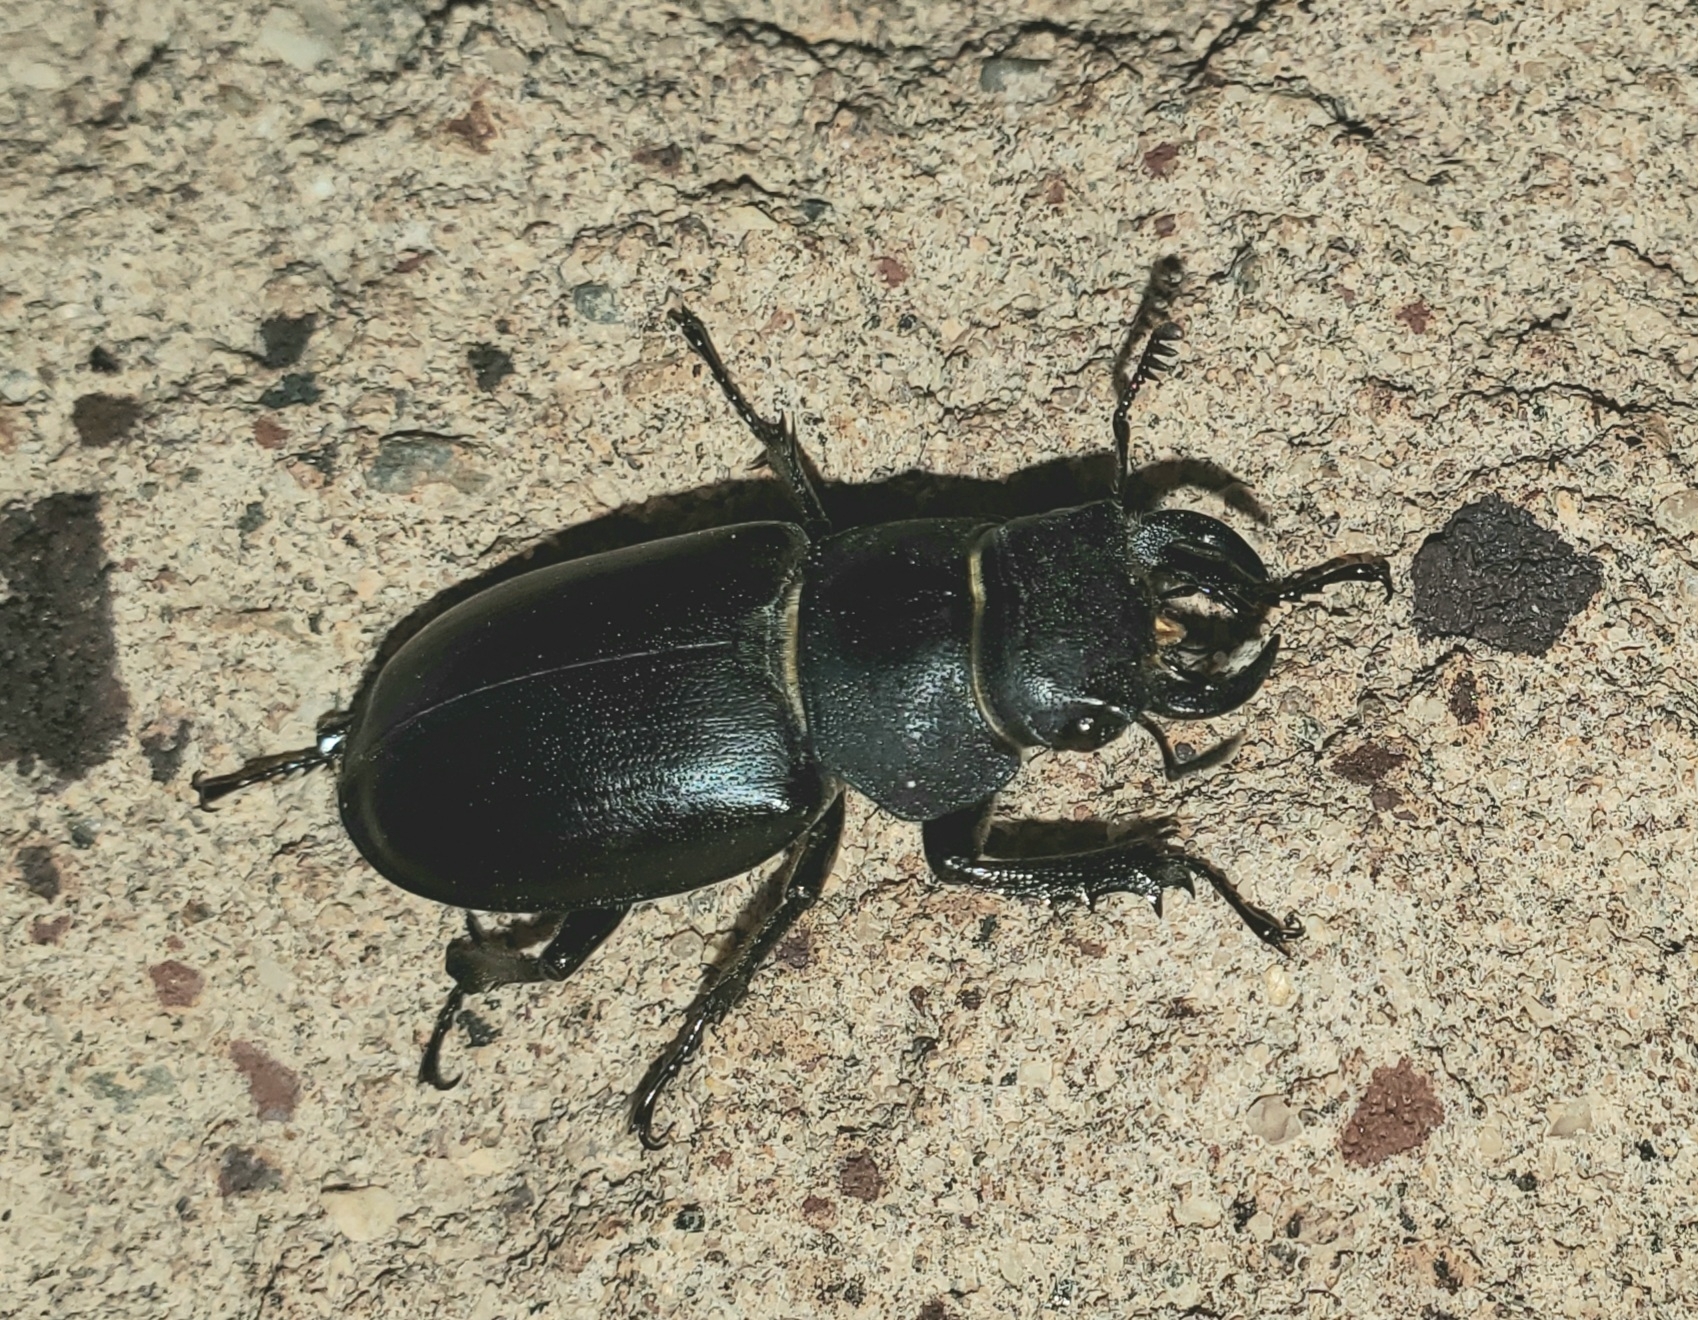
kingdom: Animalia
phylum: Arthropoda
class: Insecta
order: Coleoptera
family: Lucanidae
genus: Lucanus
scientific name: Lucanus mazama
